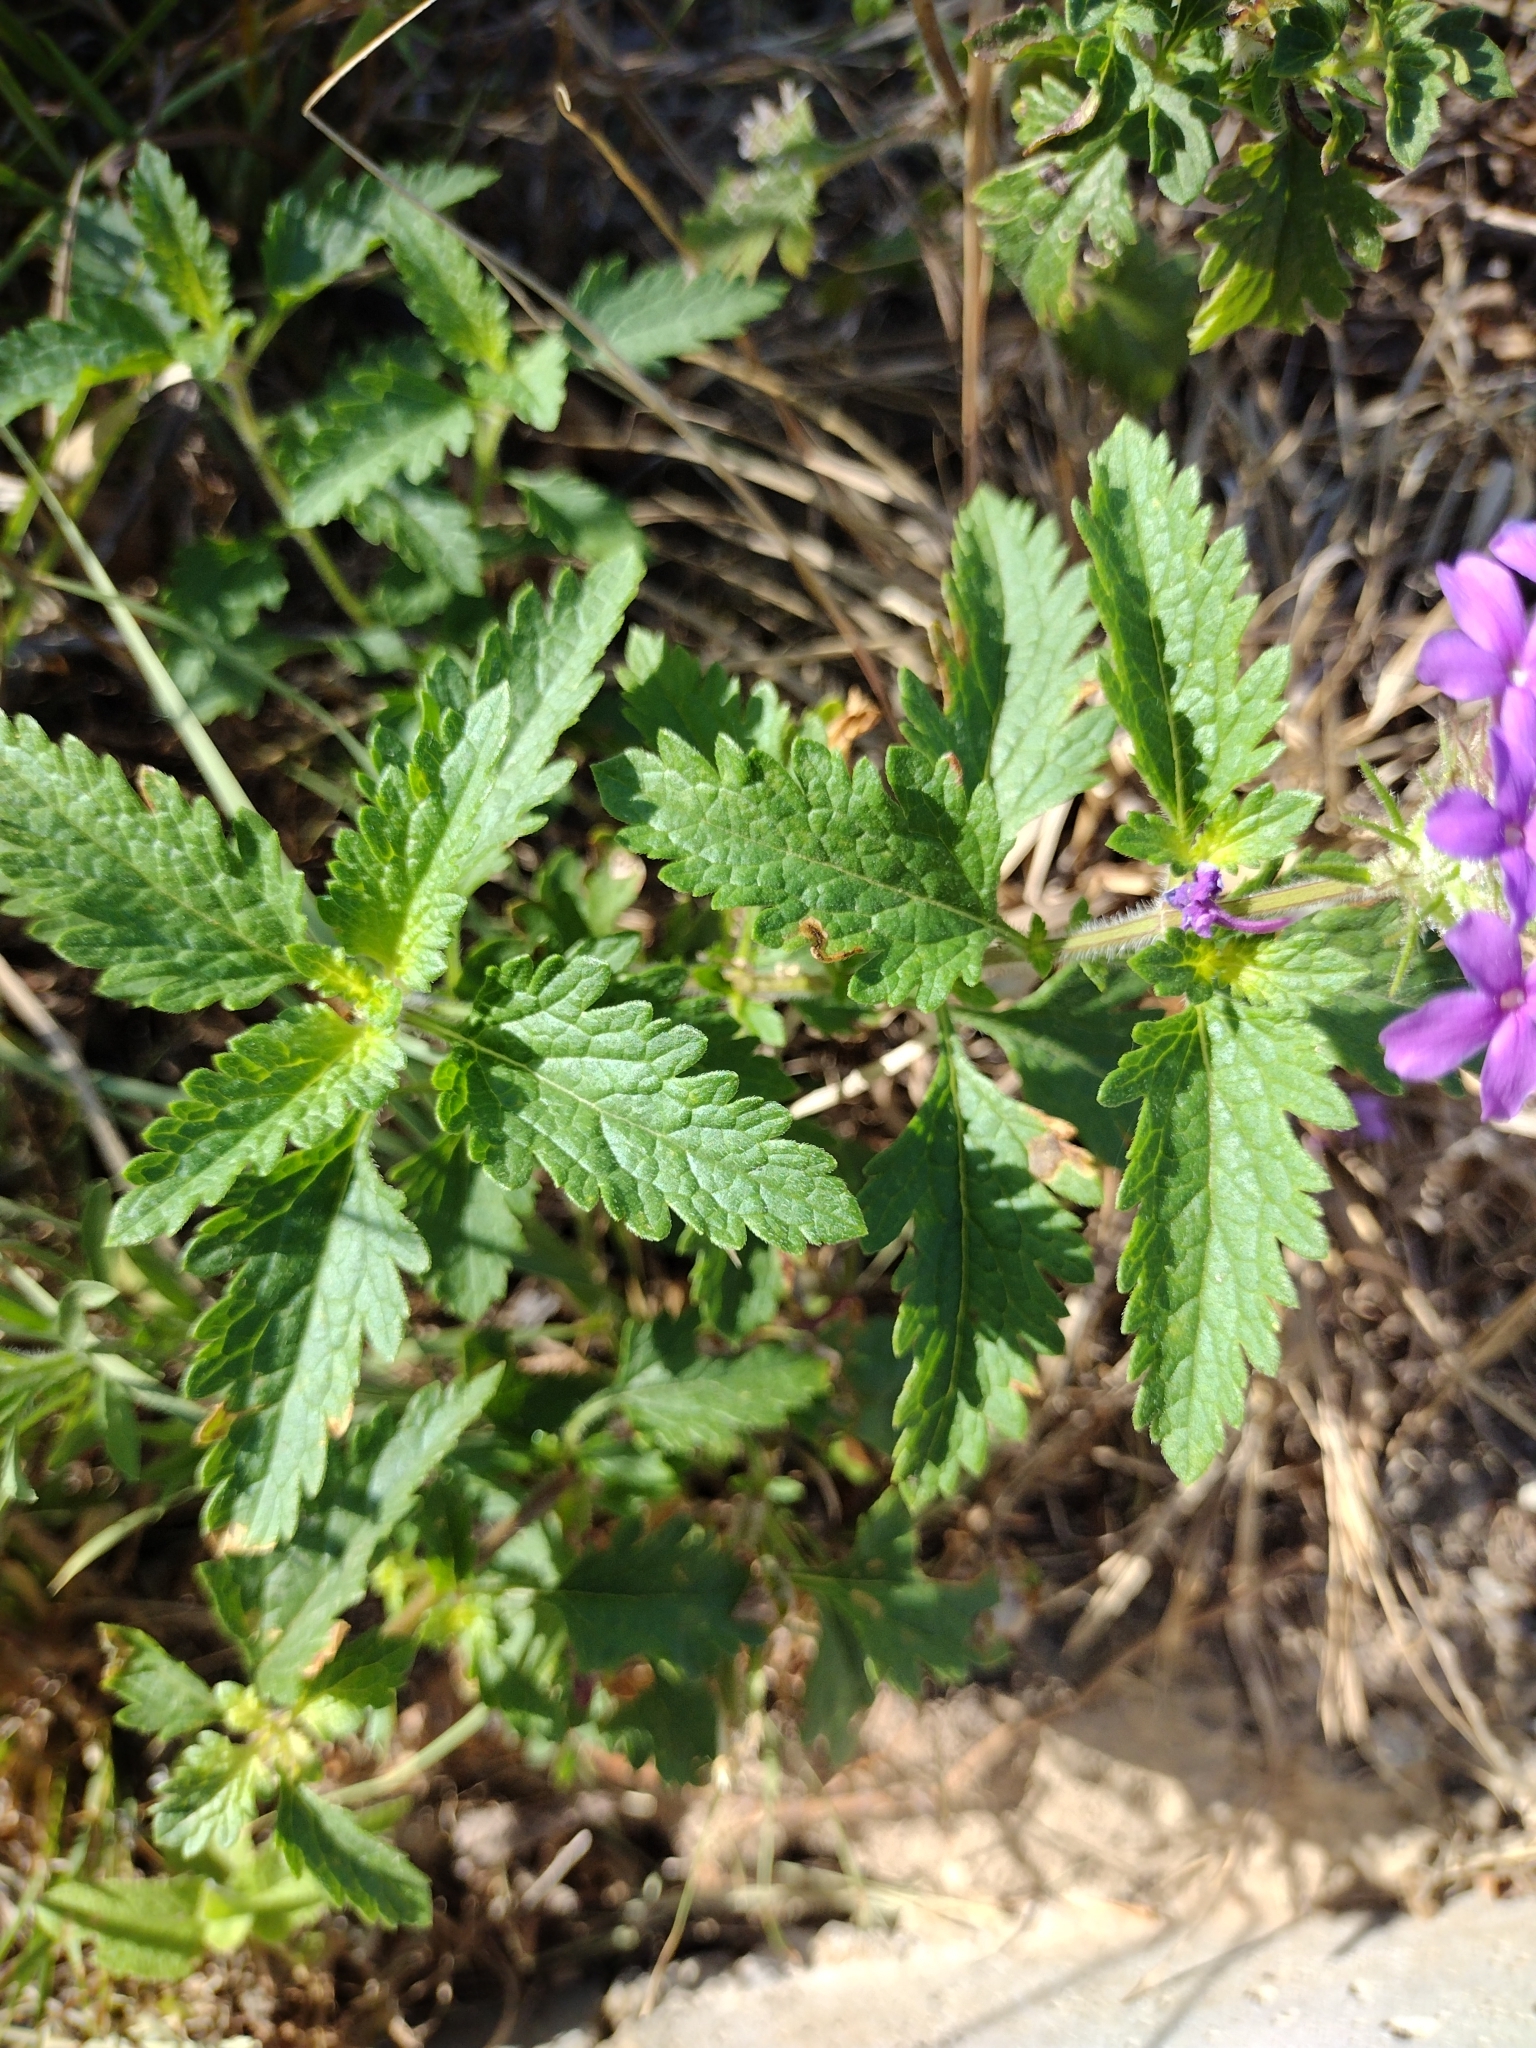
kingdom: Plantae
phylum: Tracheophyta
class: Magnoliopsida
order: Lamiales
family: Verbenaceae
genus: Verbena
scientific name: Verbena canadensis
